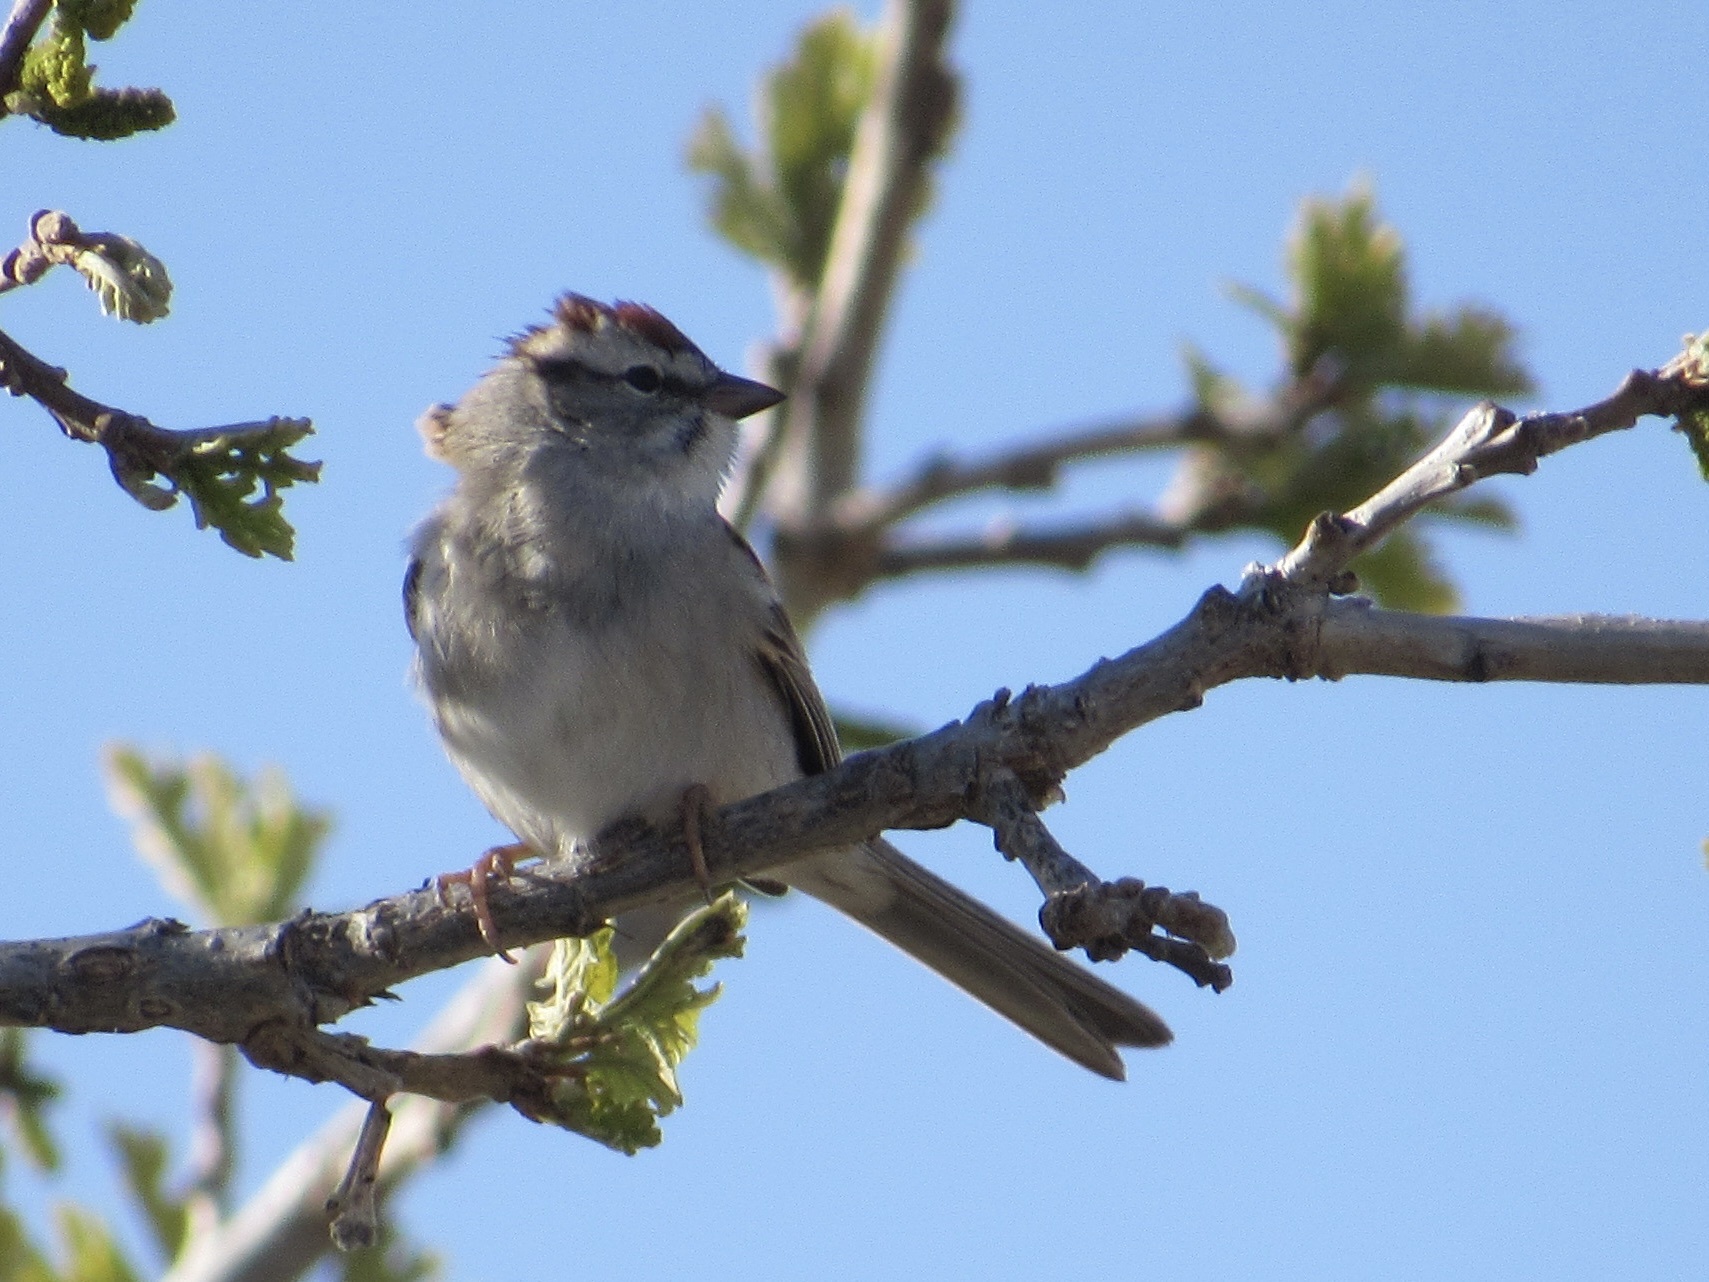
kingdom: Animalia
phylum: Chordata
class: Aves
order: Passeriformes
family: Passerellidae
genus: Spizella
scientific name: Spizella passerina
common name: Chipping sparrow
